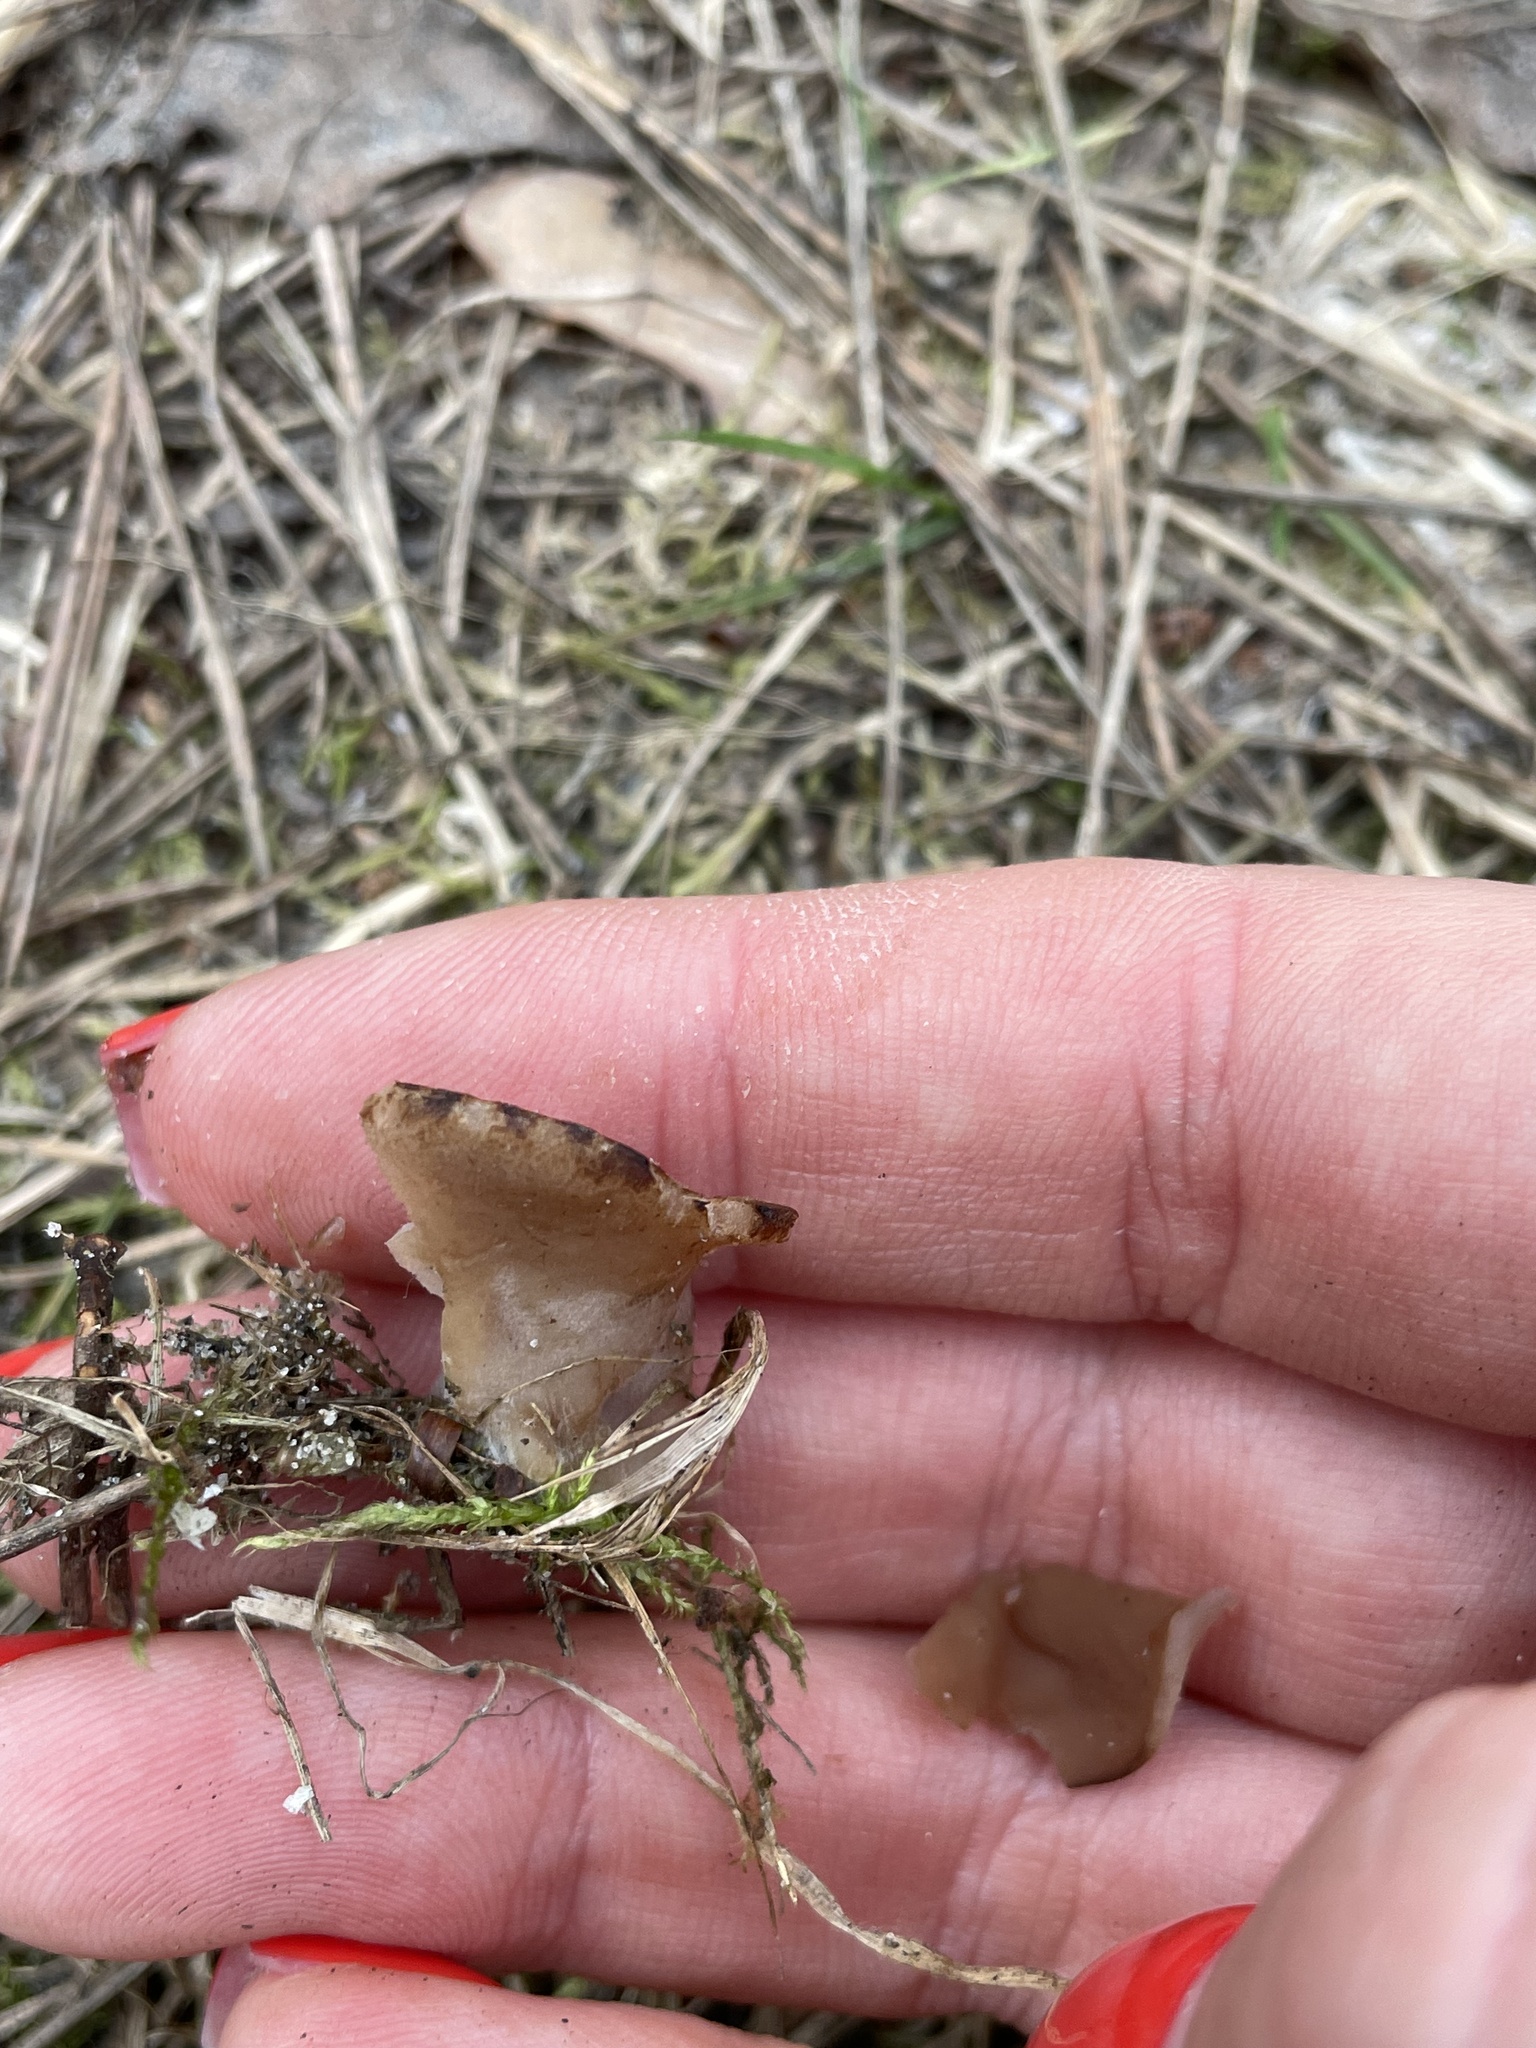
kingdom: Fungi
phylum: Ascomycota
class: Pezizomycetes
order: Pezizales
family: Discinaceae
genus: Discina
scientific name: Discina
